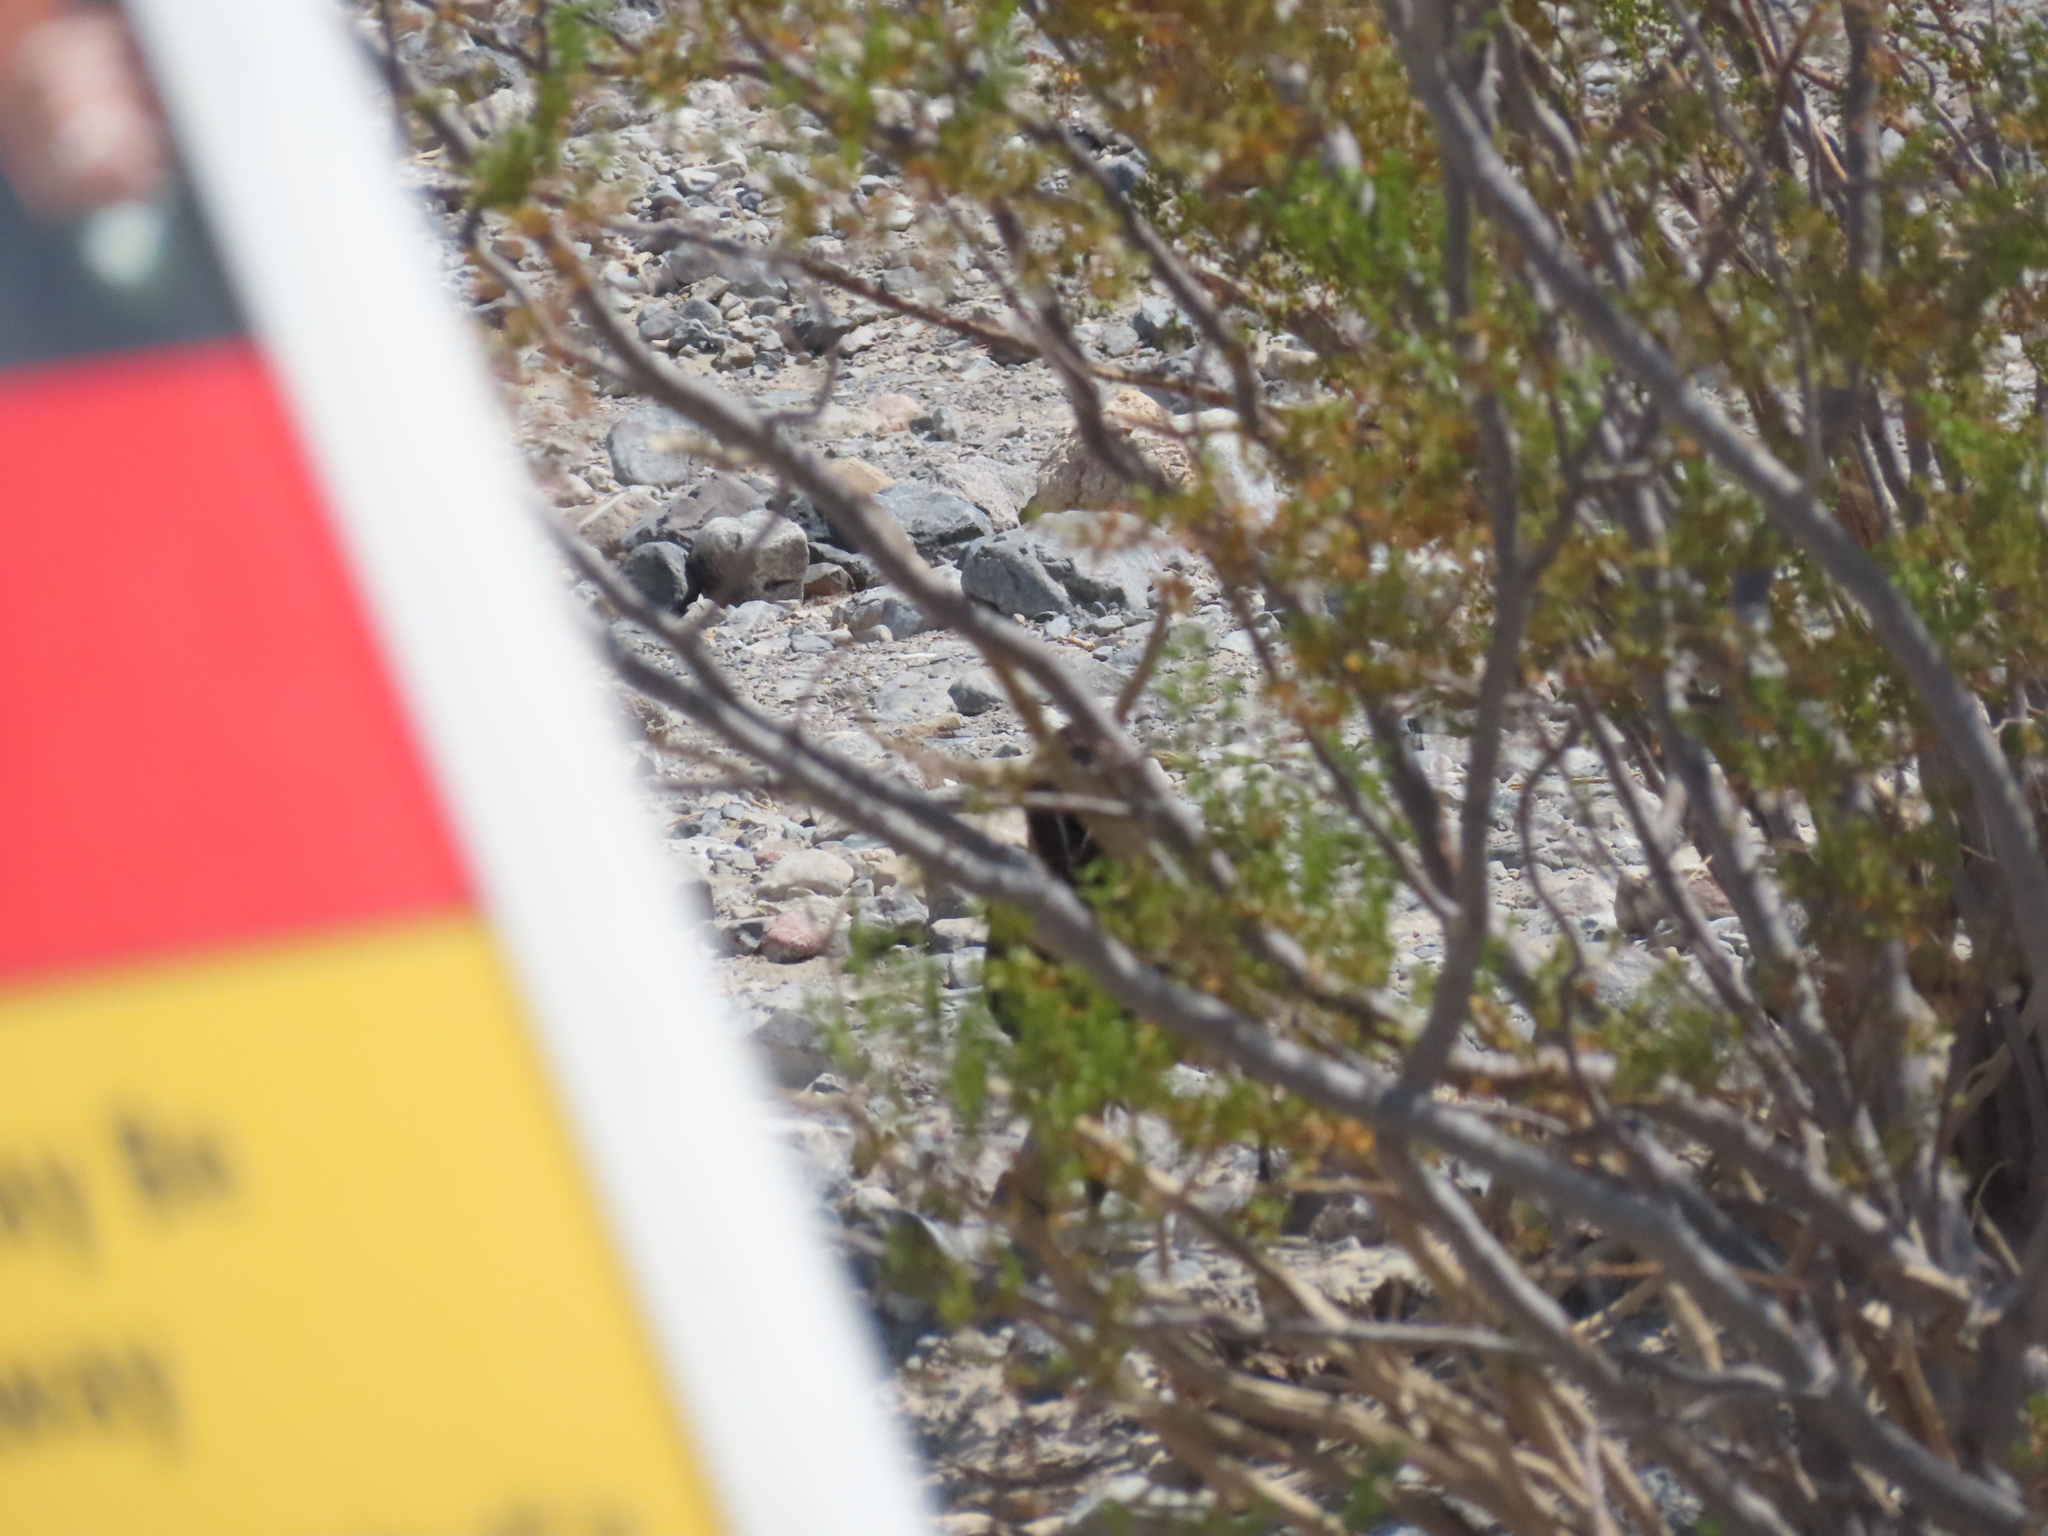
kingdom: Animalia
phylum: Chordata
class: Aves
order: Passeriformes
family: Corvidae
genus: Corvus
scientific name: Corvus corax
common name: Common raven
